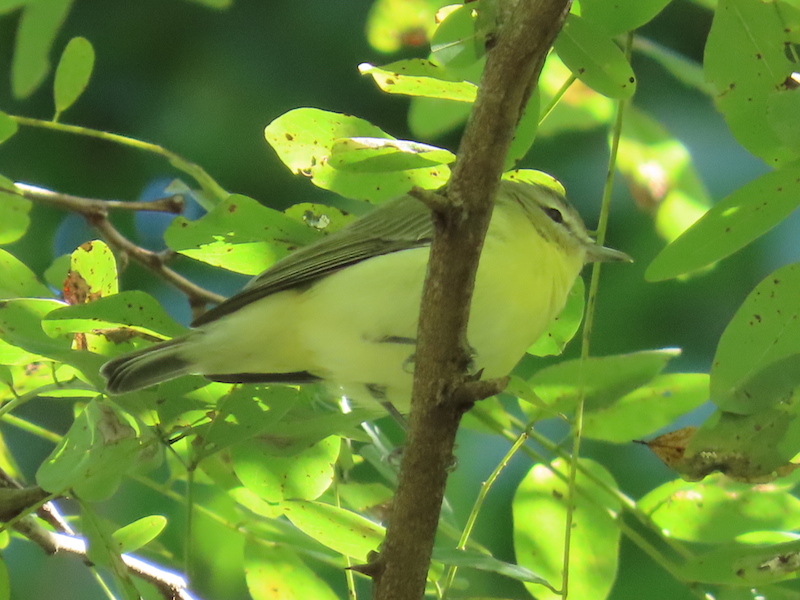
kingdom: Animalia
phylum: Chordata
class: Aves
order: Passeriformes
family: Vireonidae
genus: Vireo
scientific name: Vireo philadelphicus
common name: Philadelphia vireo
